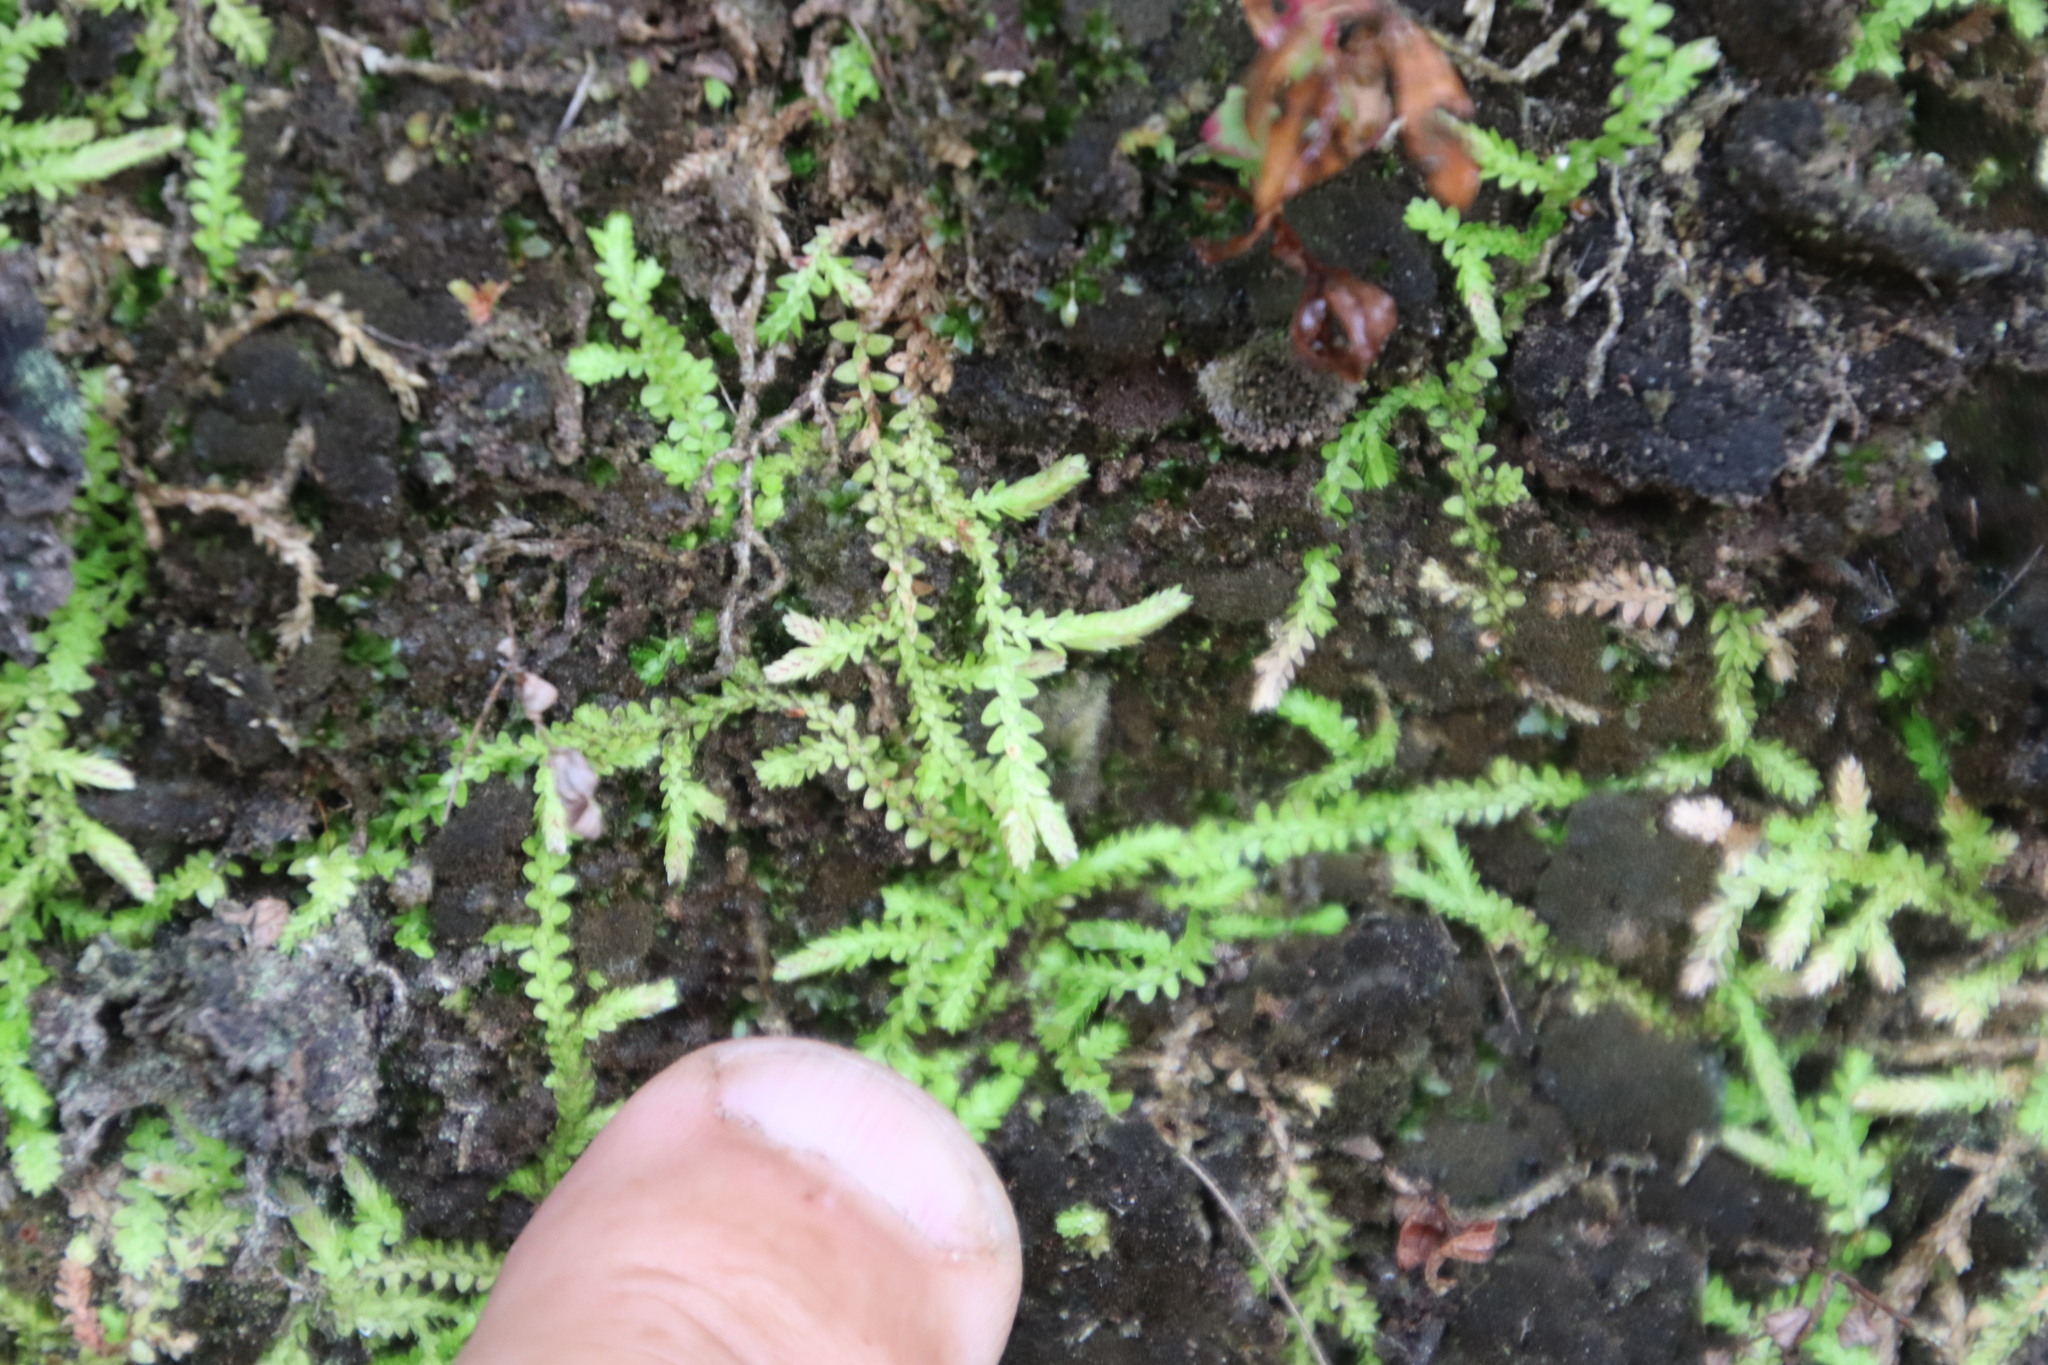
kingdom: Plantae
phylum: Tracheophyta
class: Lycopodiopsida
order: Selaginellales
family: Selaginellaceae
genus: Selaginella
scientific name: Selaginella mittenii
